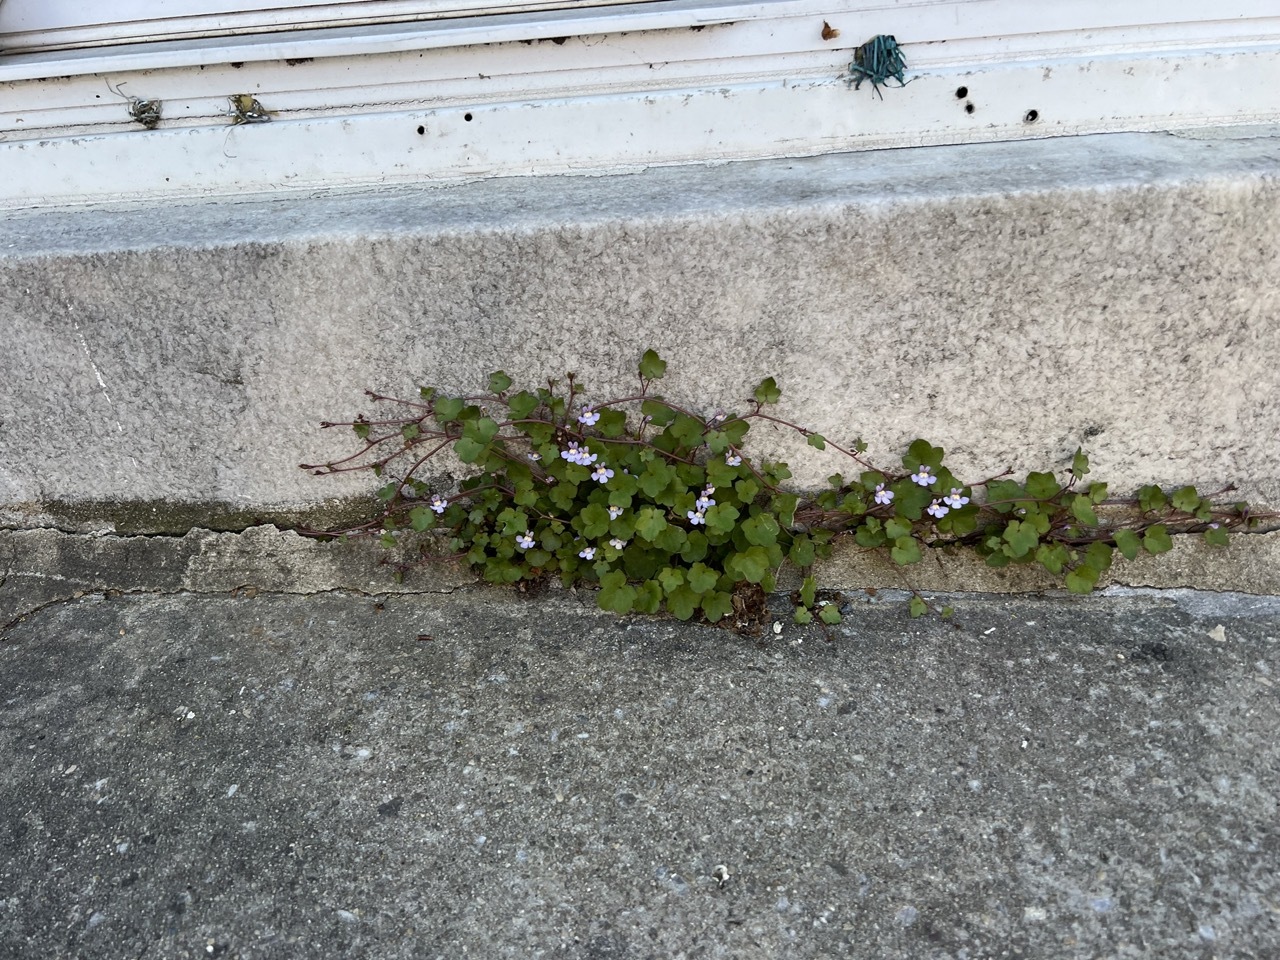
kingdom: Plantae
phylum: Tracheophyta
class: Magnoliopsida
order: Lamiales
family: Plantaginaceae
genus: Cymbalaria
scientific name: Cymbalaria muralis
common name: Ivy-leaved toadflax
